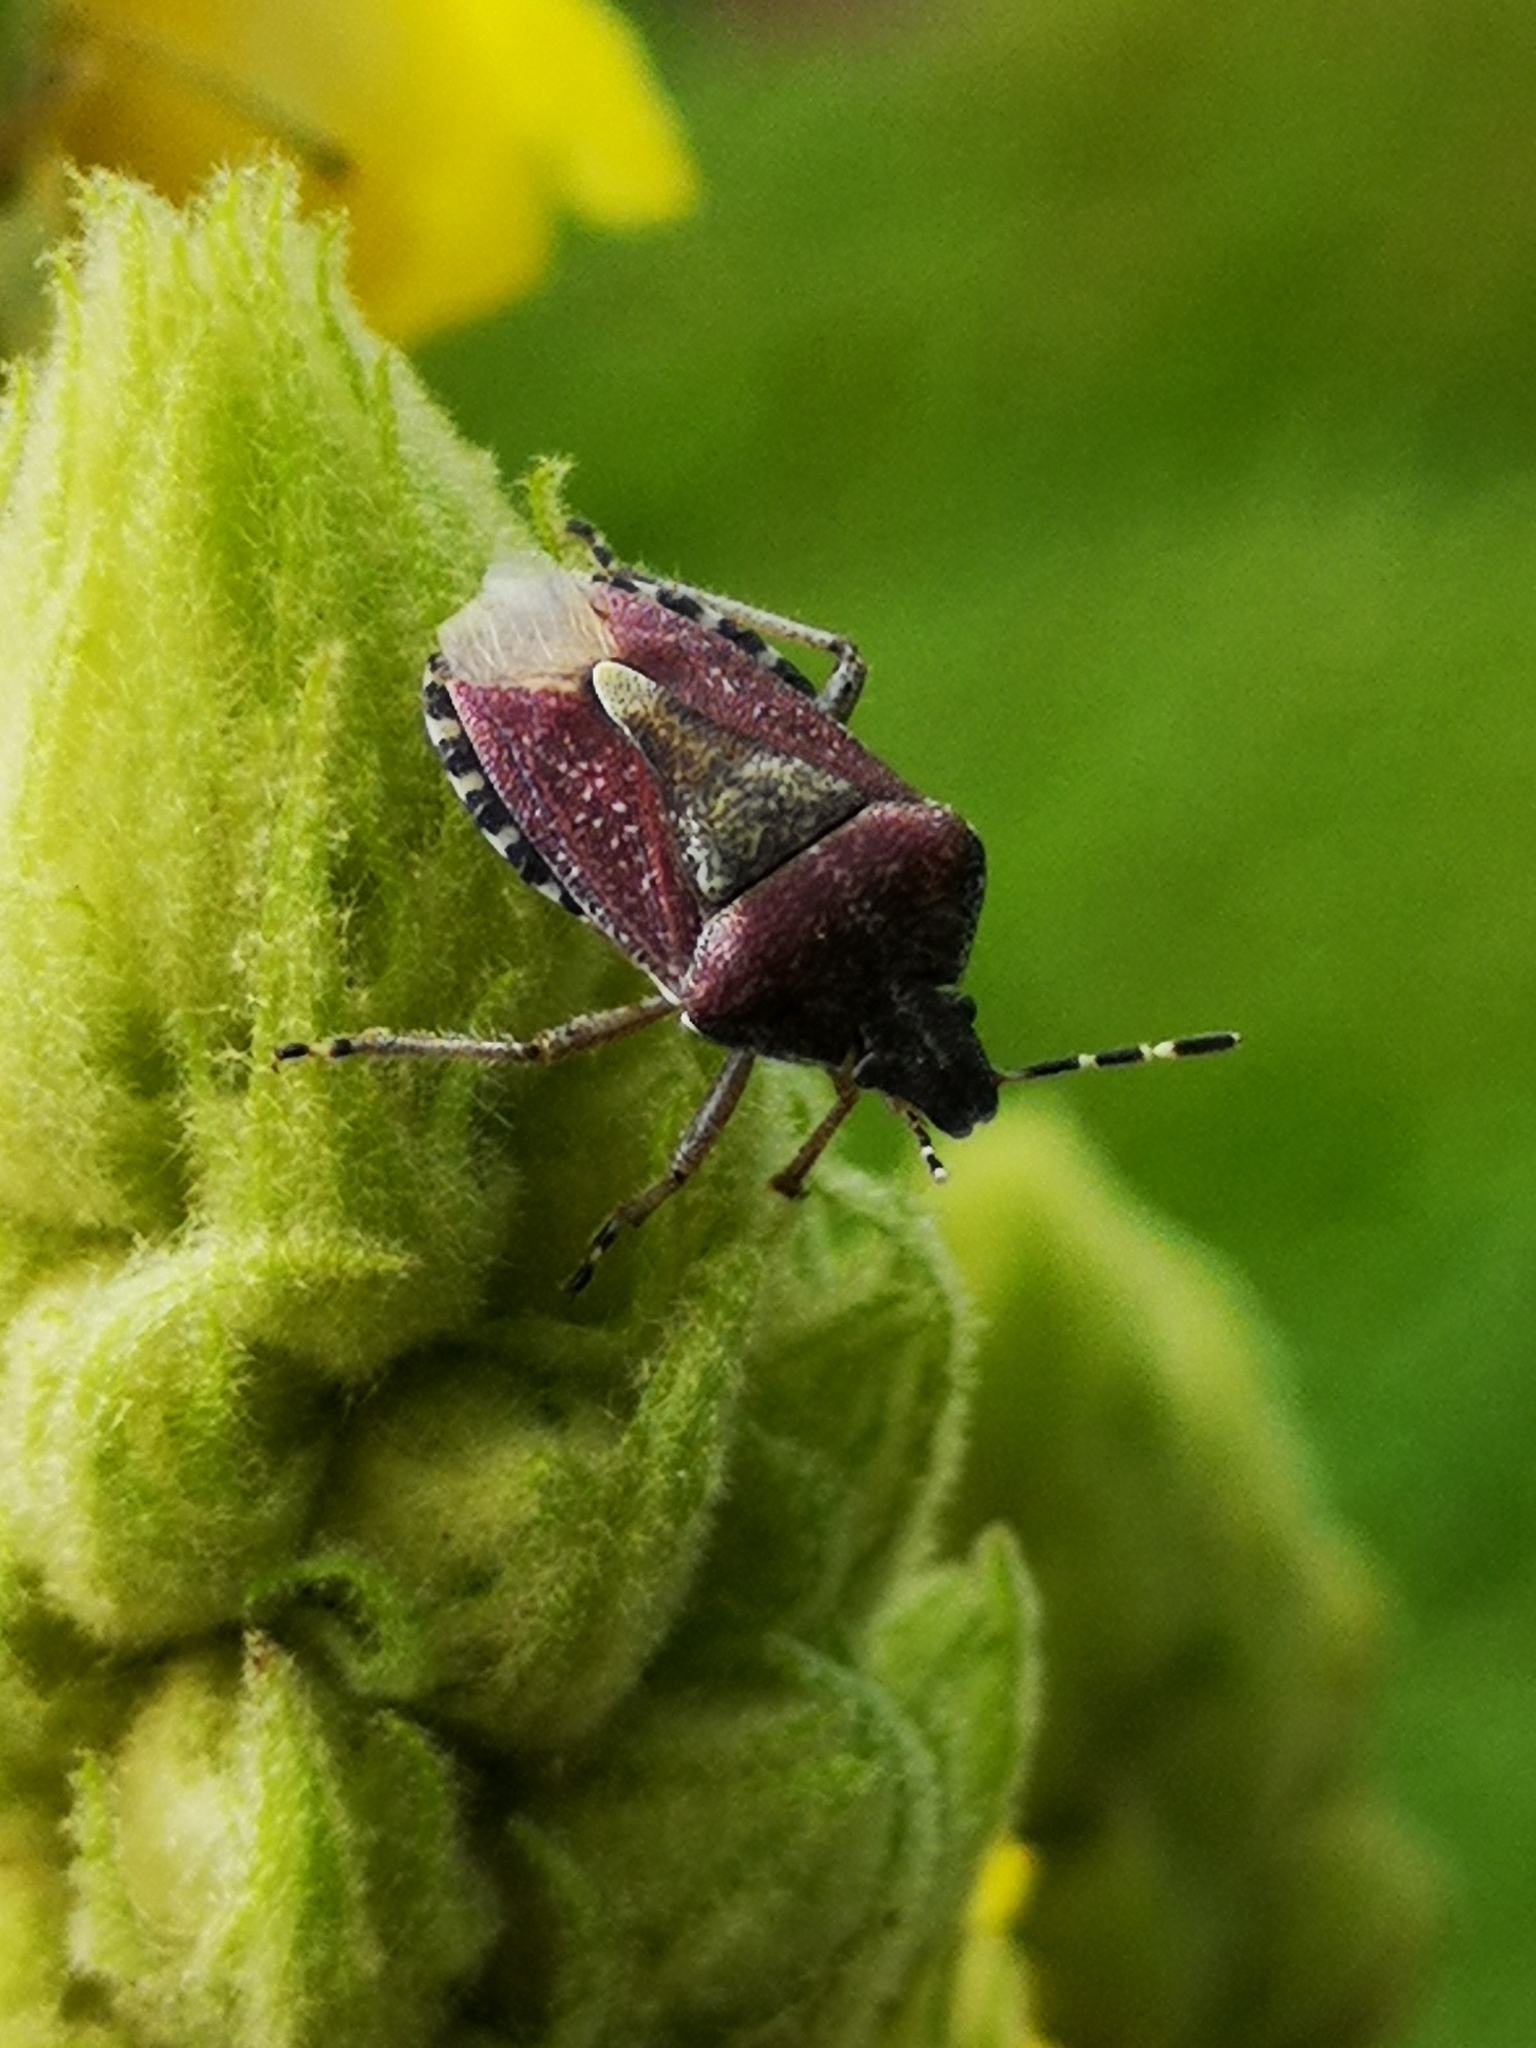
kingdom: Animalia
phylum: Arthropoda
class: Insecta
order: Hemiptera
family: Pentatomidae
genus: Dolycoris
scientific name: Dolycoris baccarum
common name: Sloe bug
